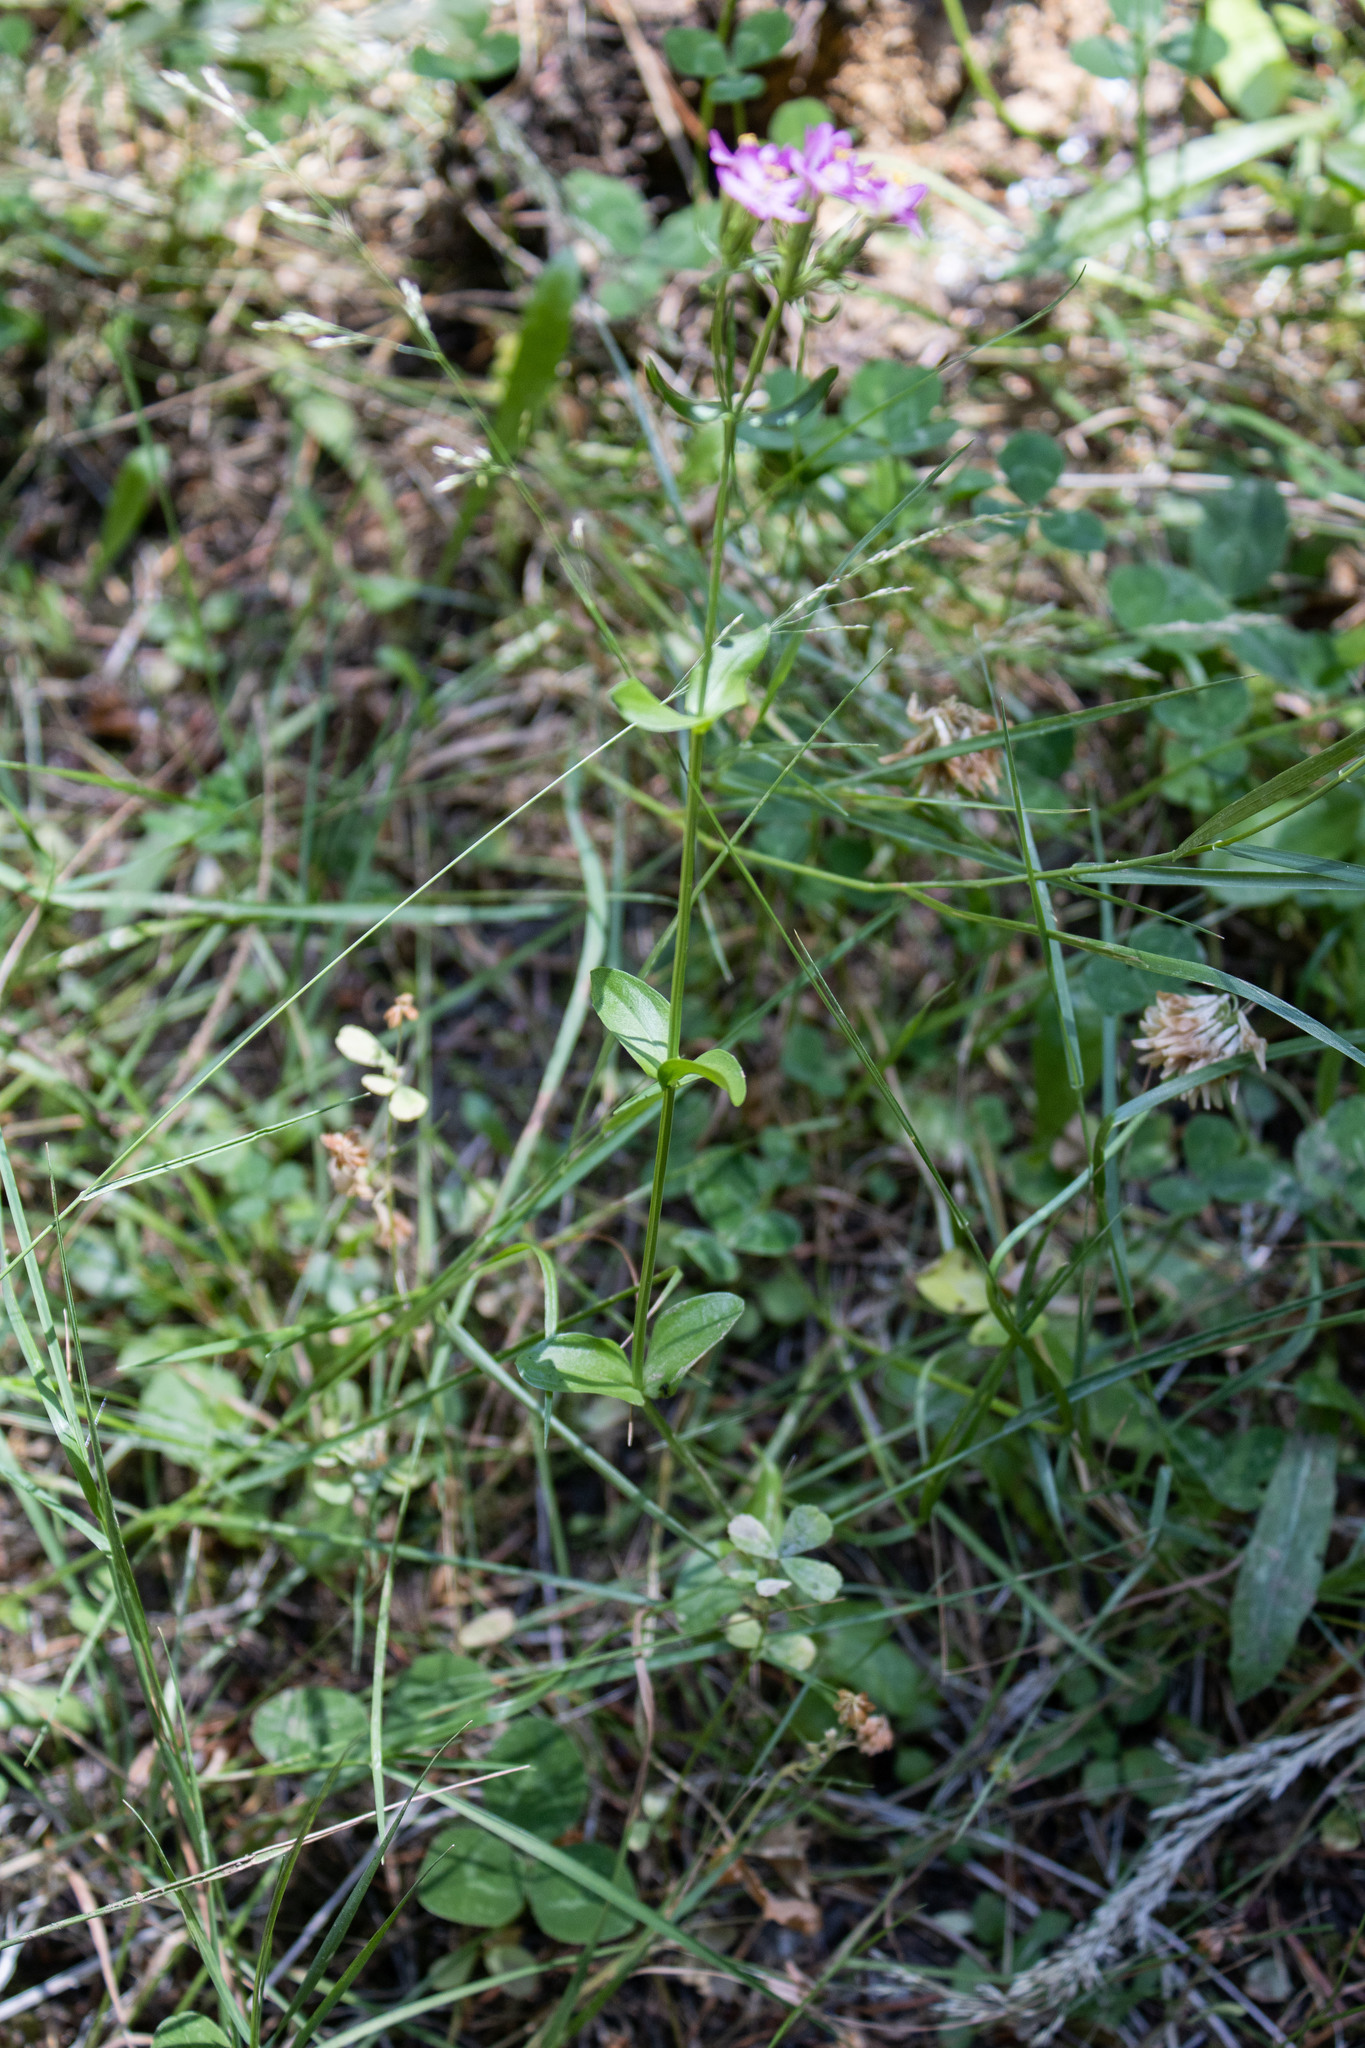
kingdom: Plantae
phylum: Tracheophyta
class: Magnoliopsida
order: Gentianales
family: Gentianaceae
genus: Centaurium
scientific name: Centaurium erythraea
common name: Common centaury
